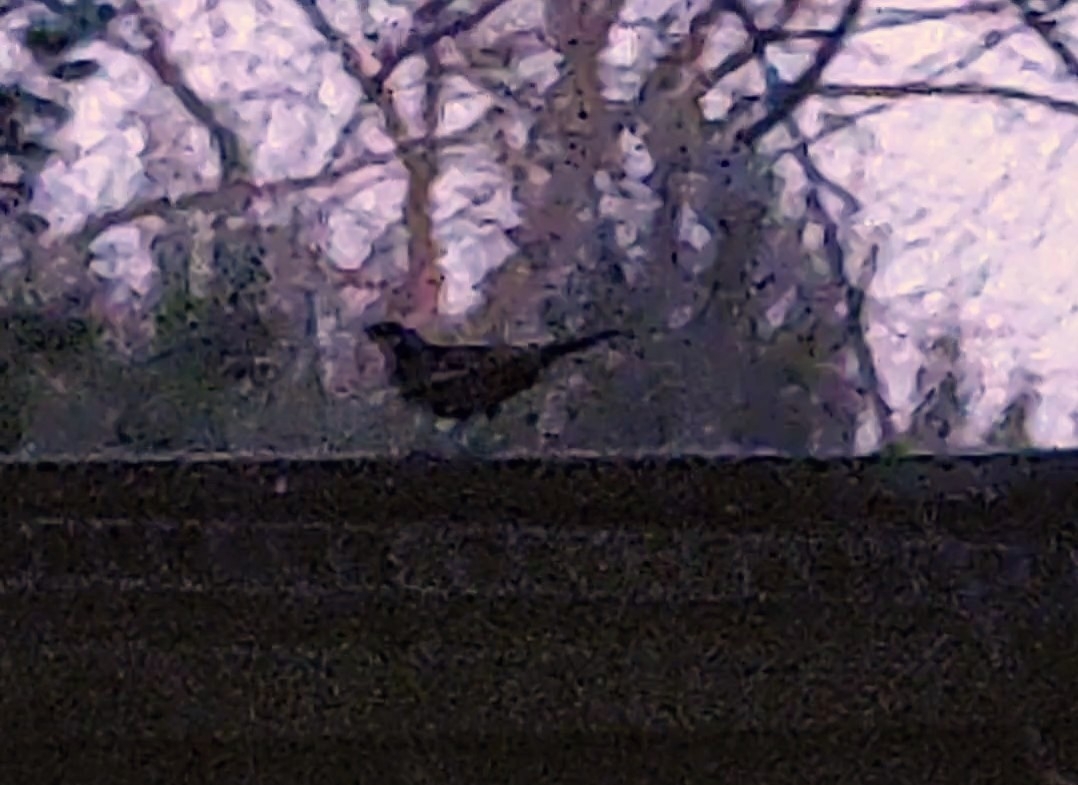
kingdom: Animalia
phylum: Chordata
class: Aves
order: Passeriformes
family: Turdidae
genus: Turdus
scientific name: Turdus merula
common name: Common blackbird
